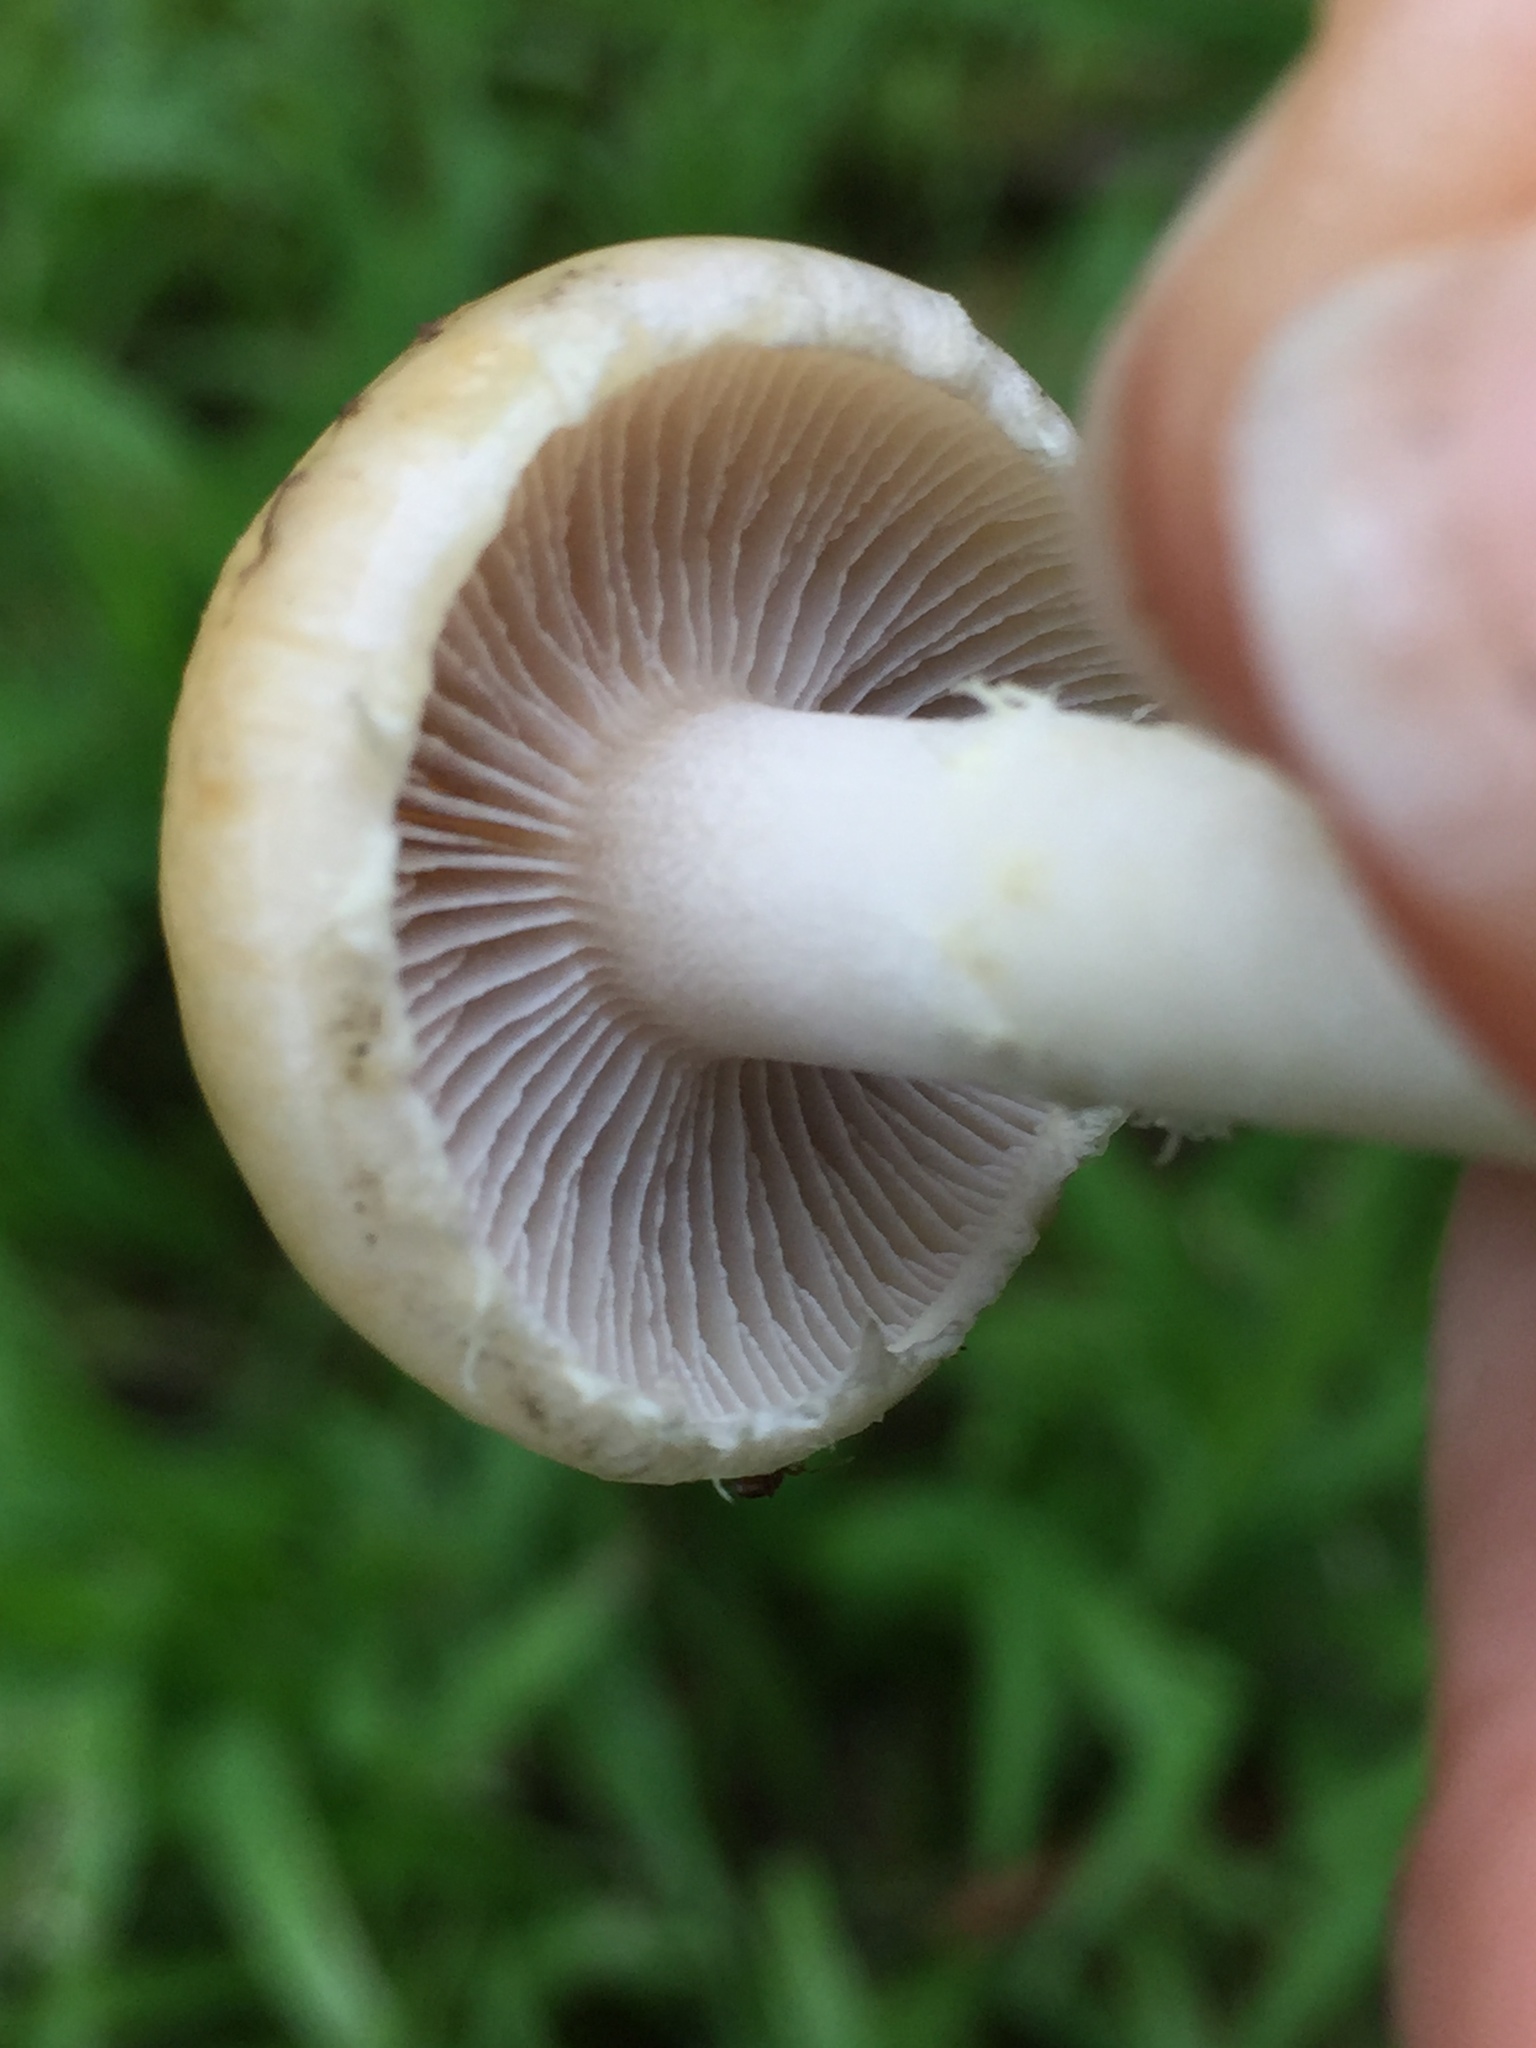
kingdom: Fungi
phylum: Basidiomycota
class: Agaricomycetes
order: Agaricales
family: Strophariaceae
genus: Leratiomyces
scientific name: Leratiomyces percevalii
